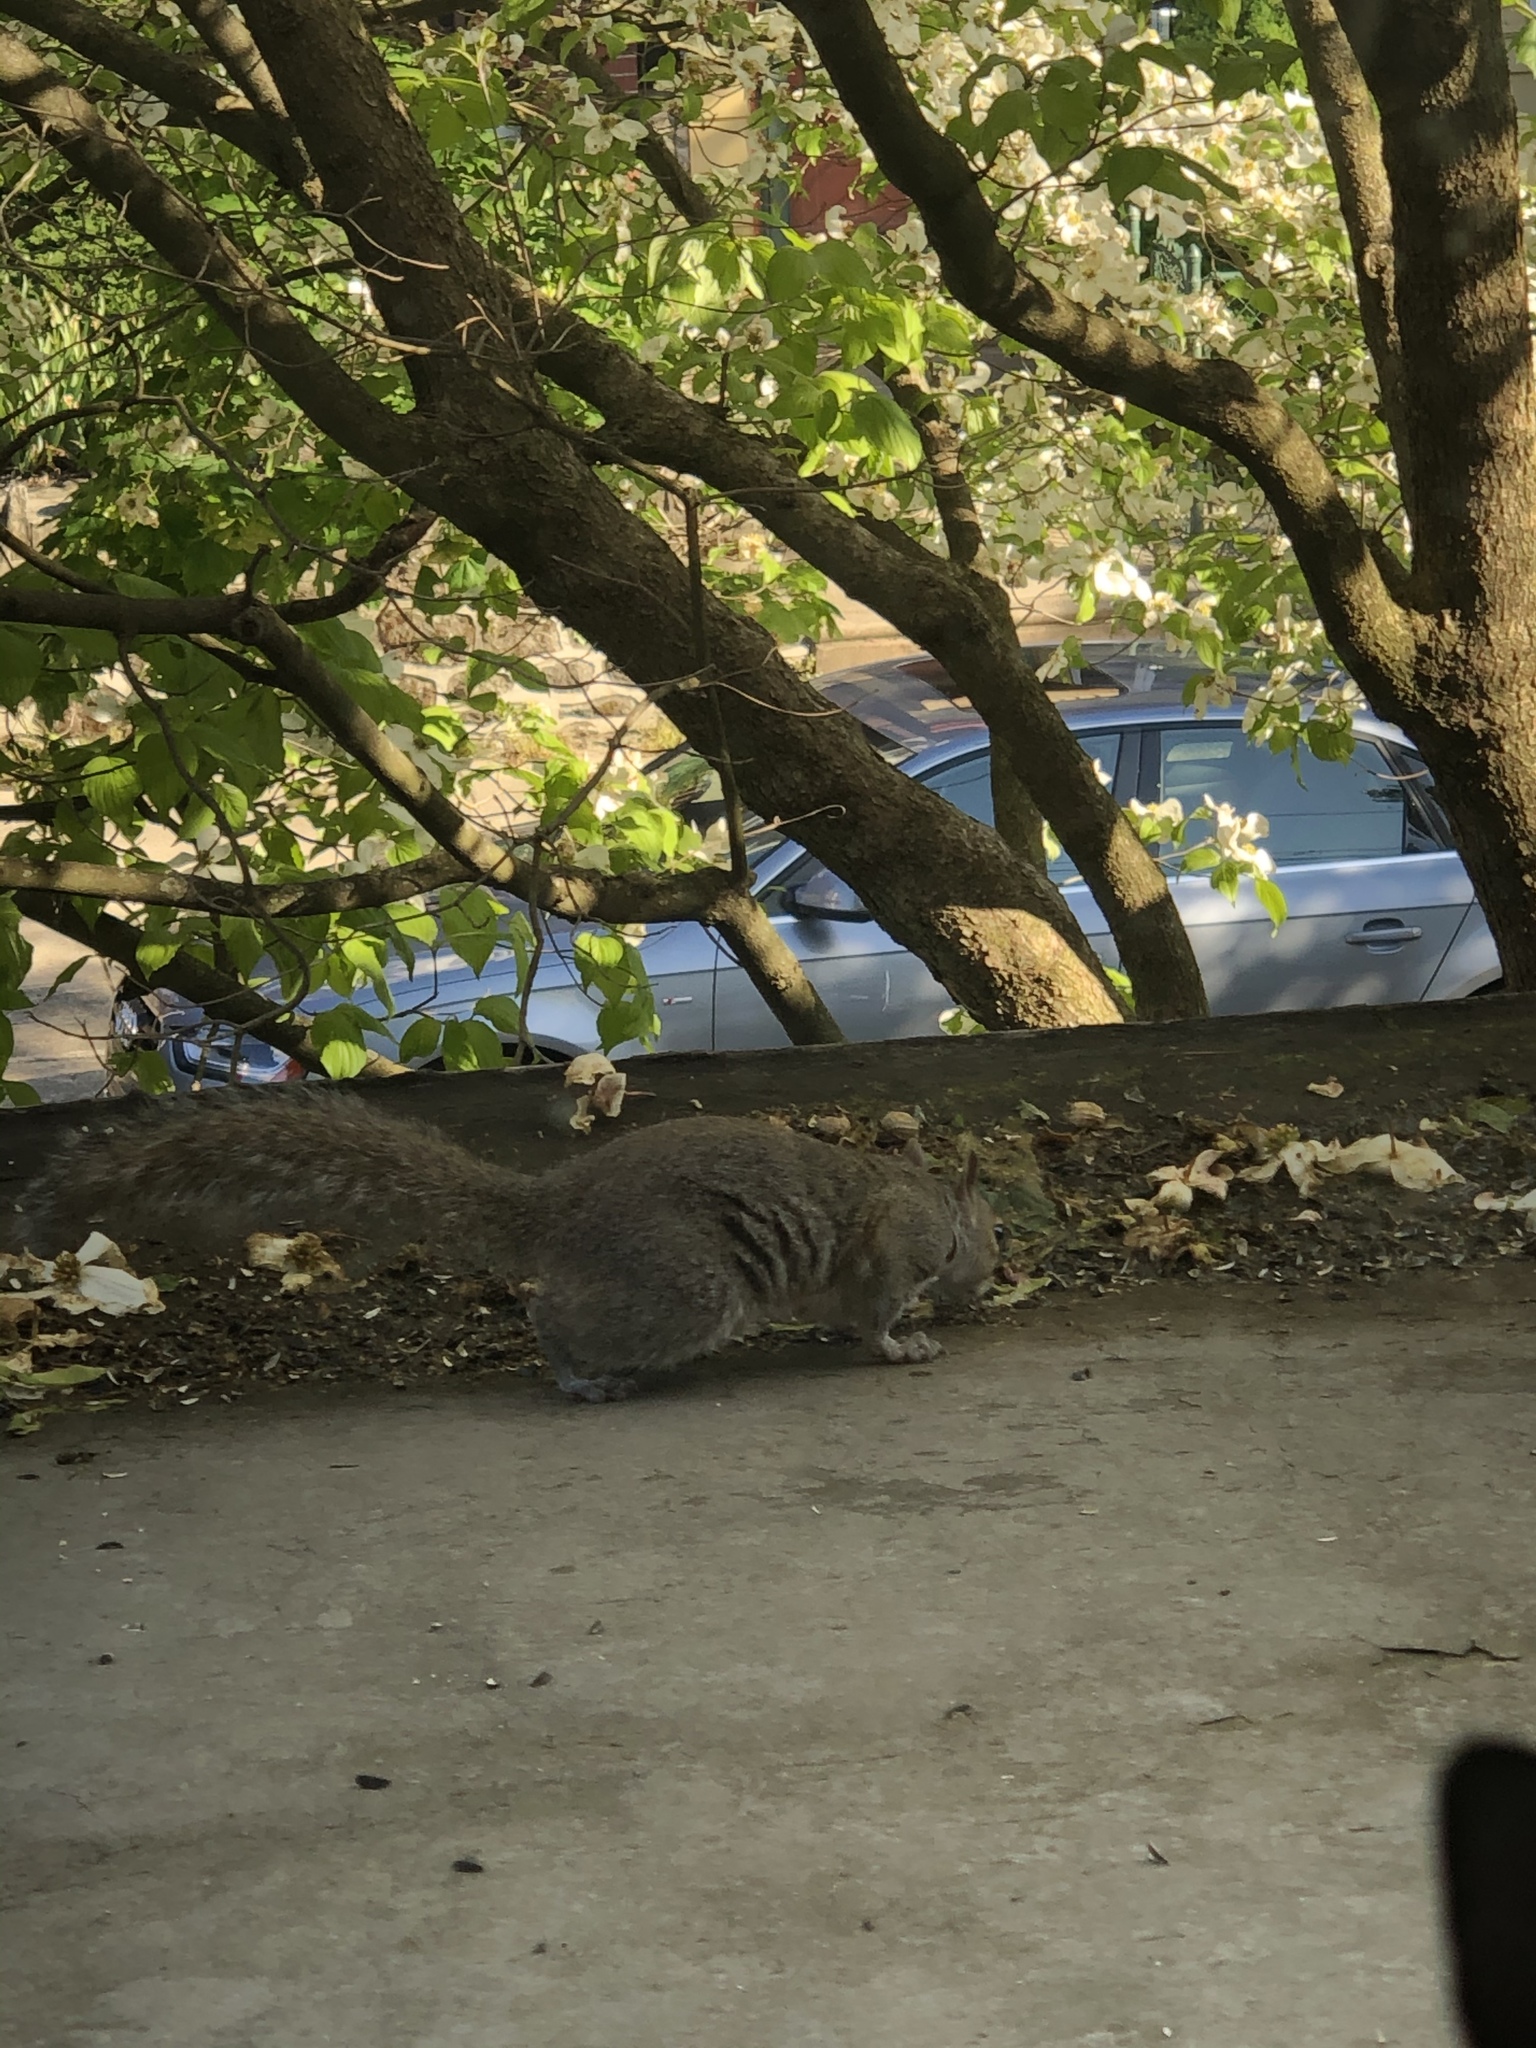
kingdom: Animalia
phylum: Chordata
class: Mammalia
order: Rodentia
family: Sciuridae
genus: Sciurus
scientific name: Sciurus carolinensis
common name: Eastern gray squirrel
